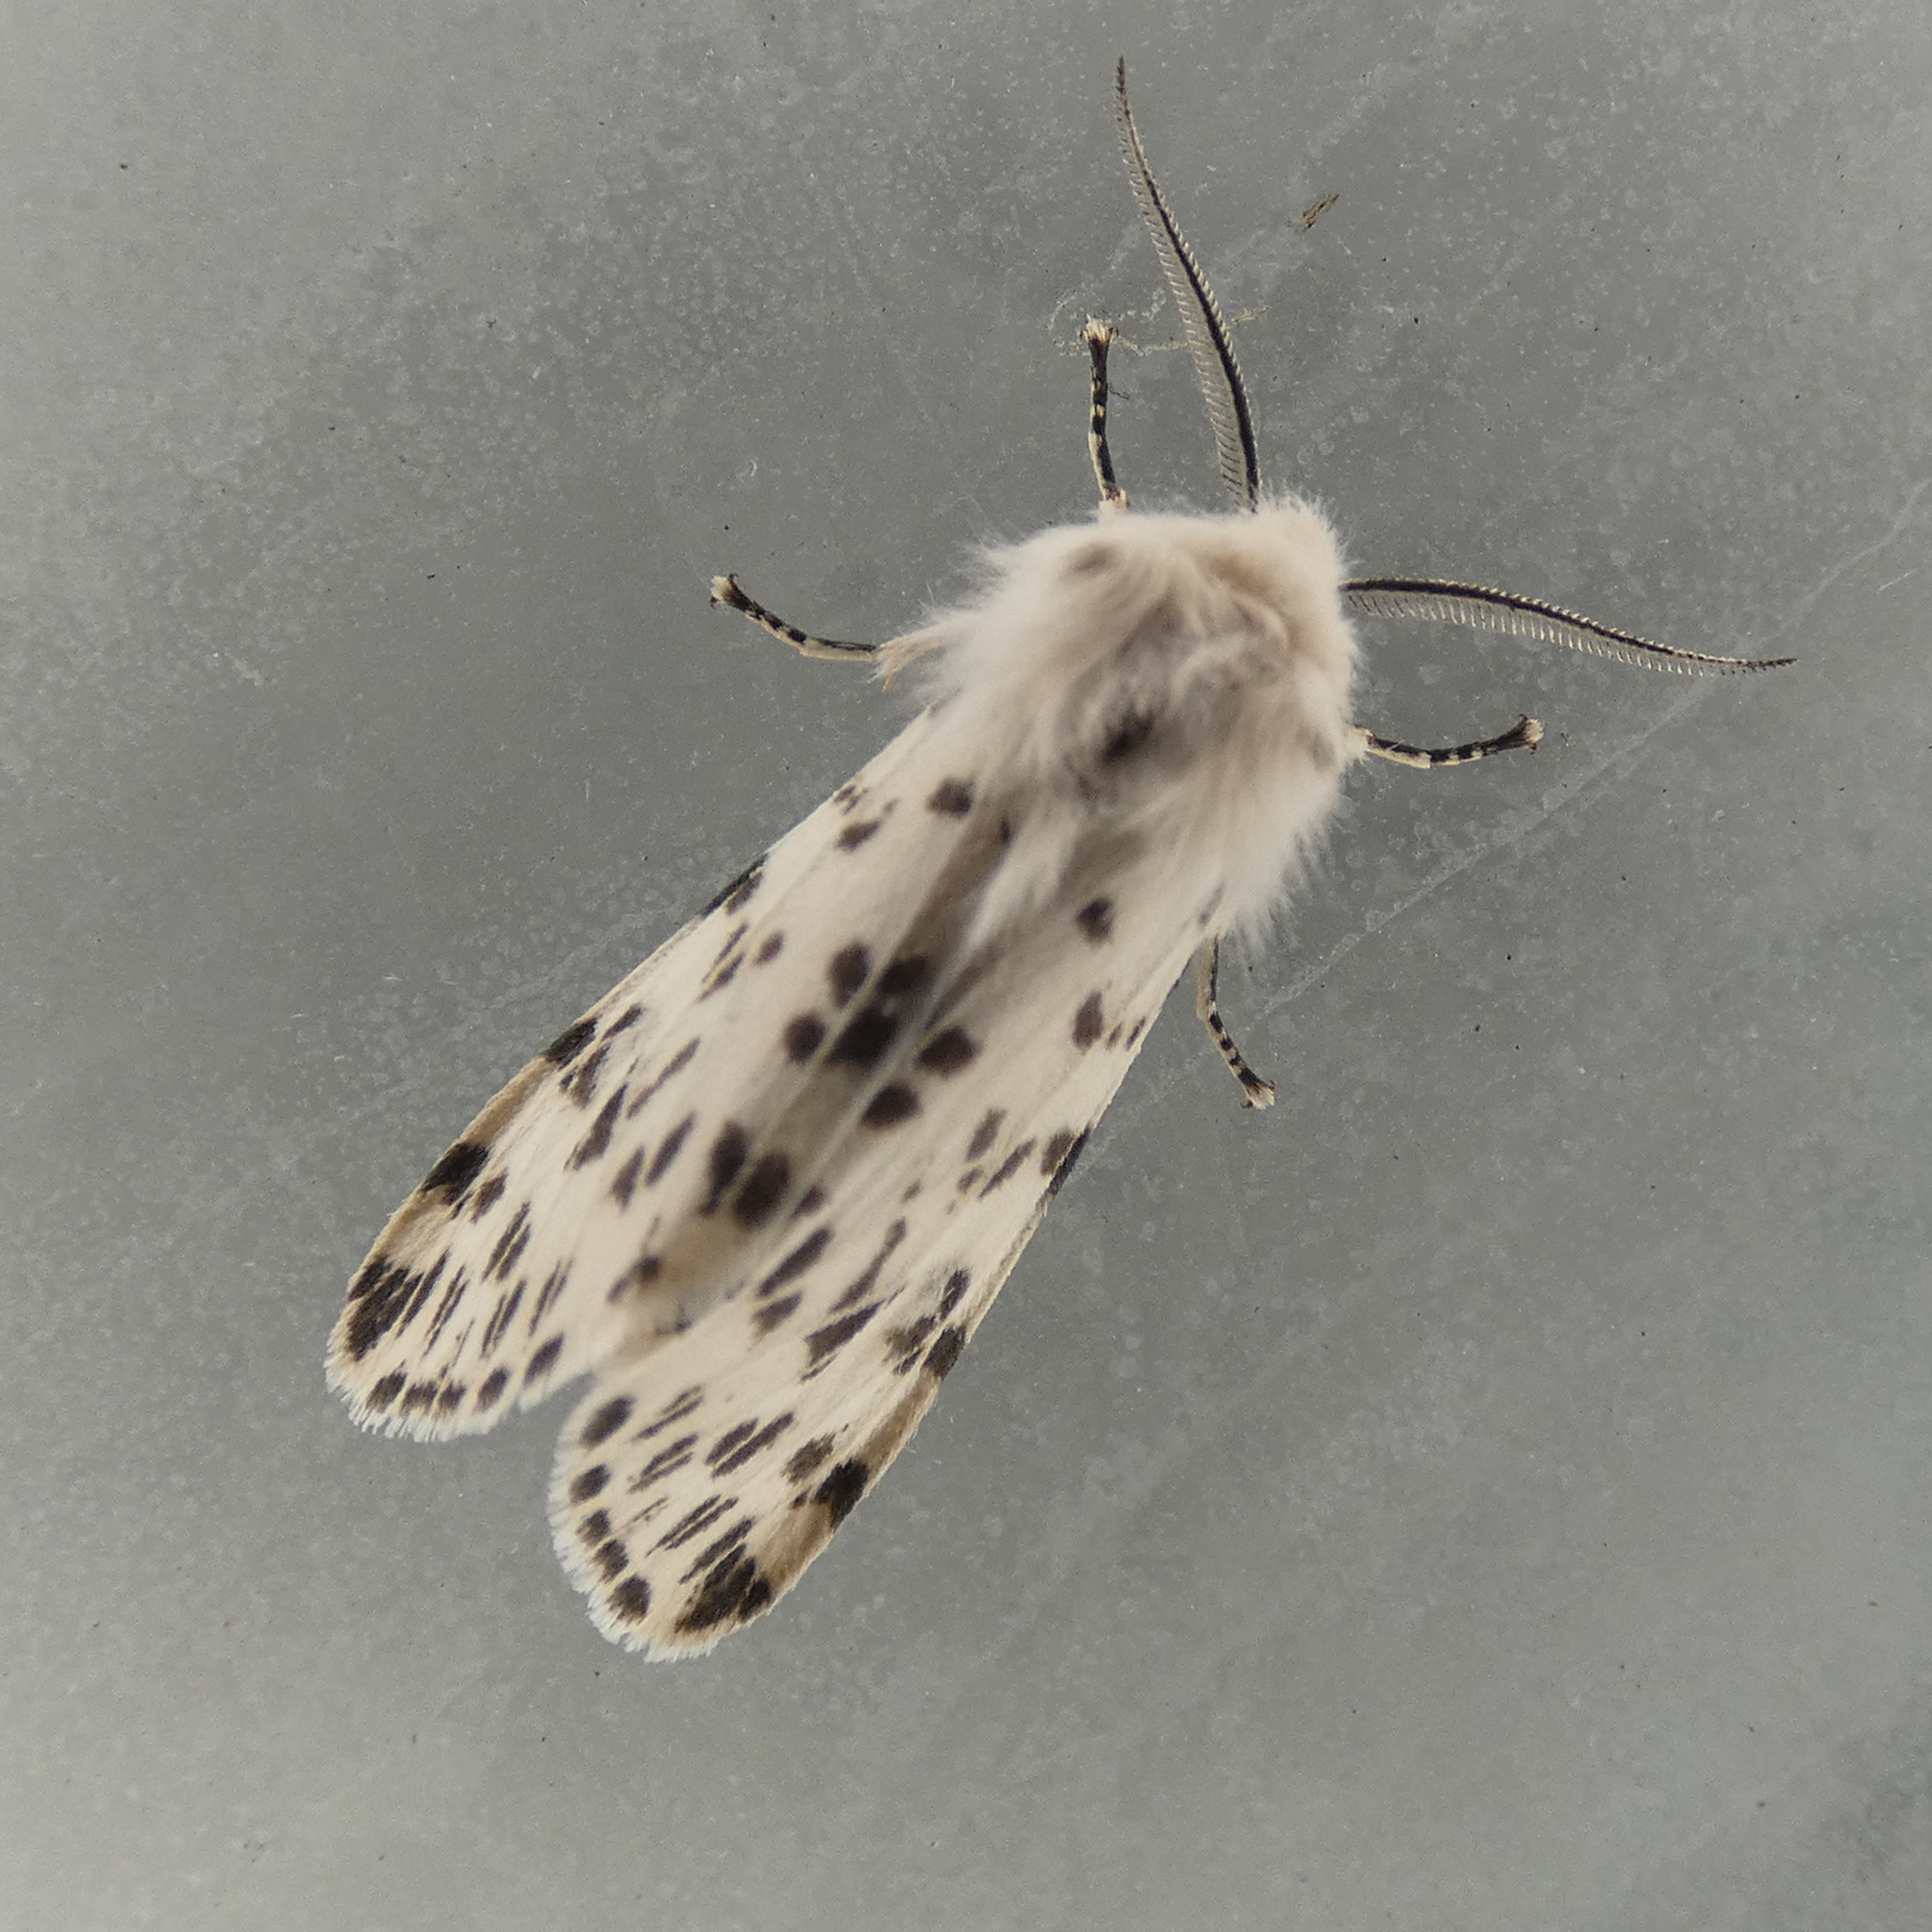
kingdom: Animalia
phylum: Arthropoda
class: Insecta
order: Lepidoptera
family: Erebidae
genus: Hyphantria
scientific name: Hyphantria cunea
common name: American white moth
